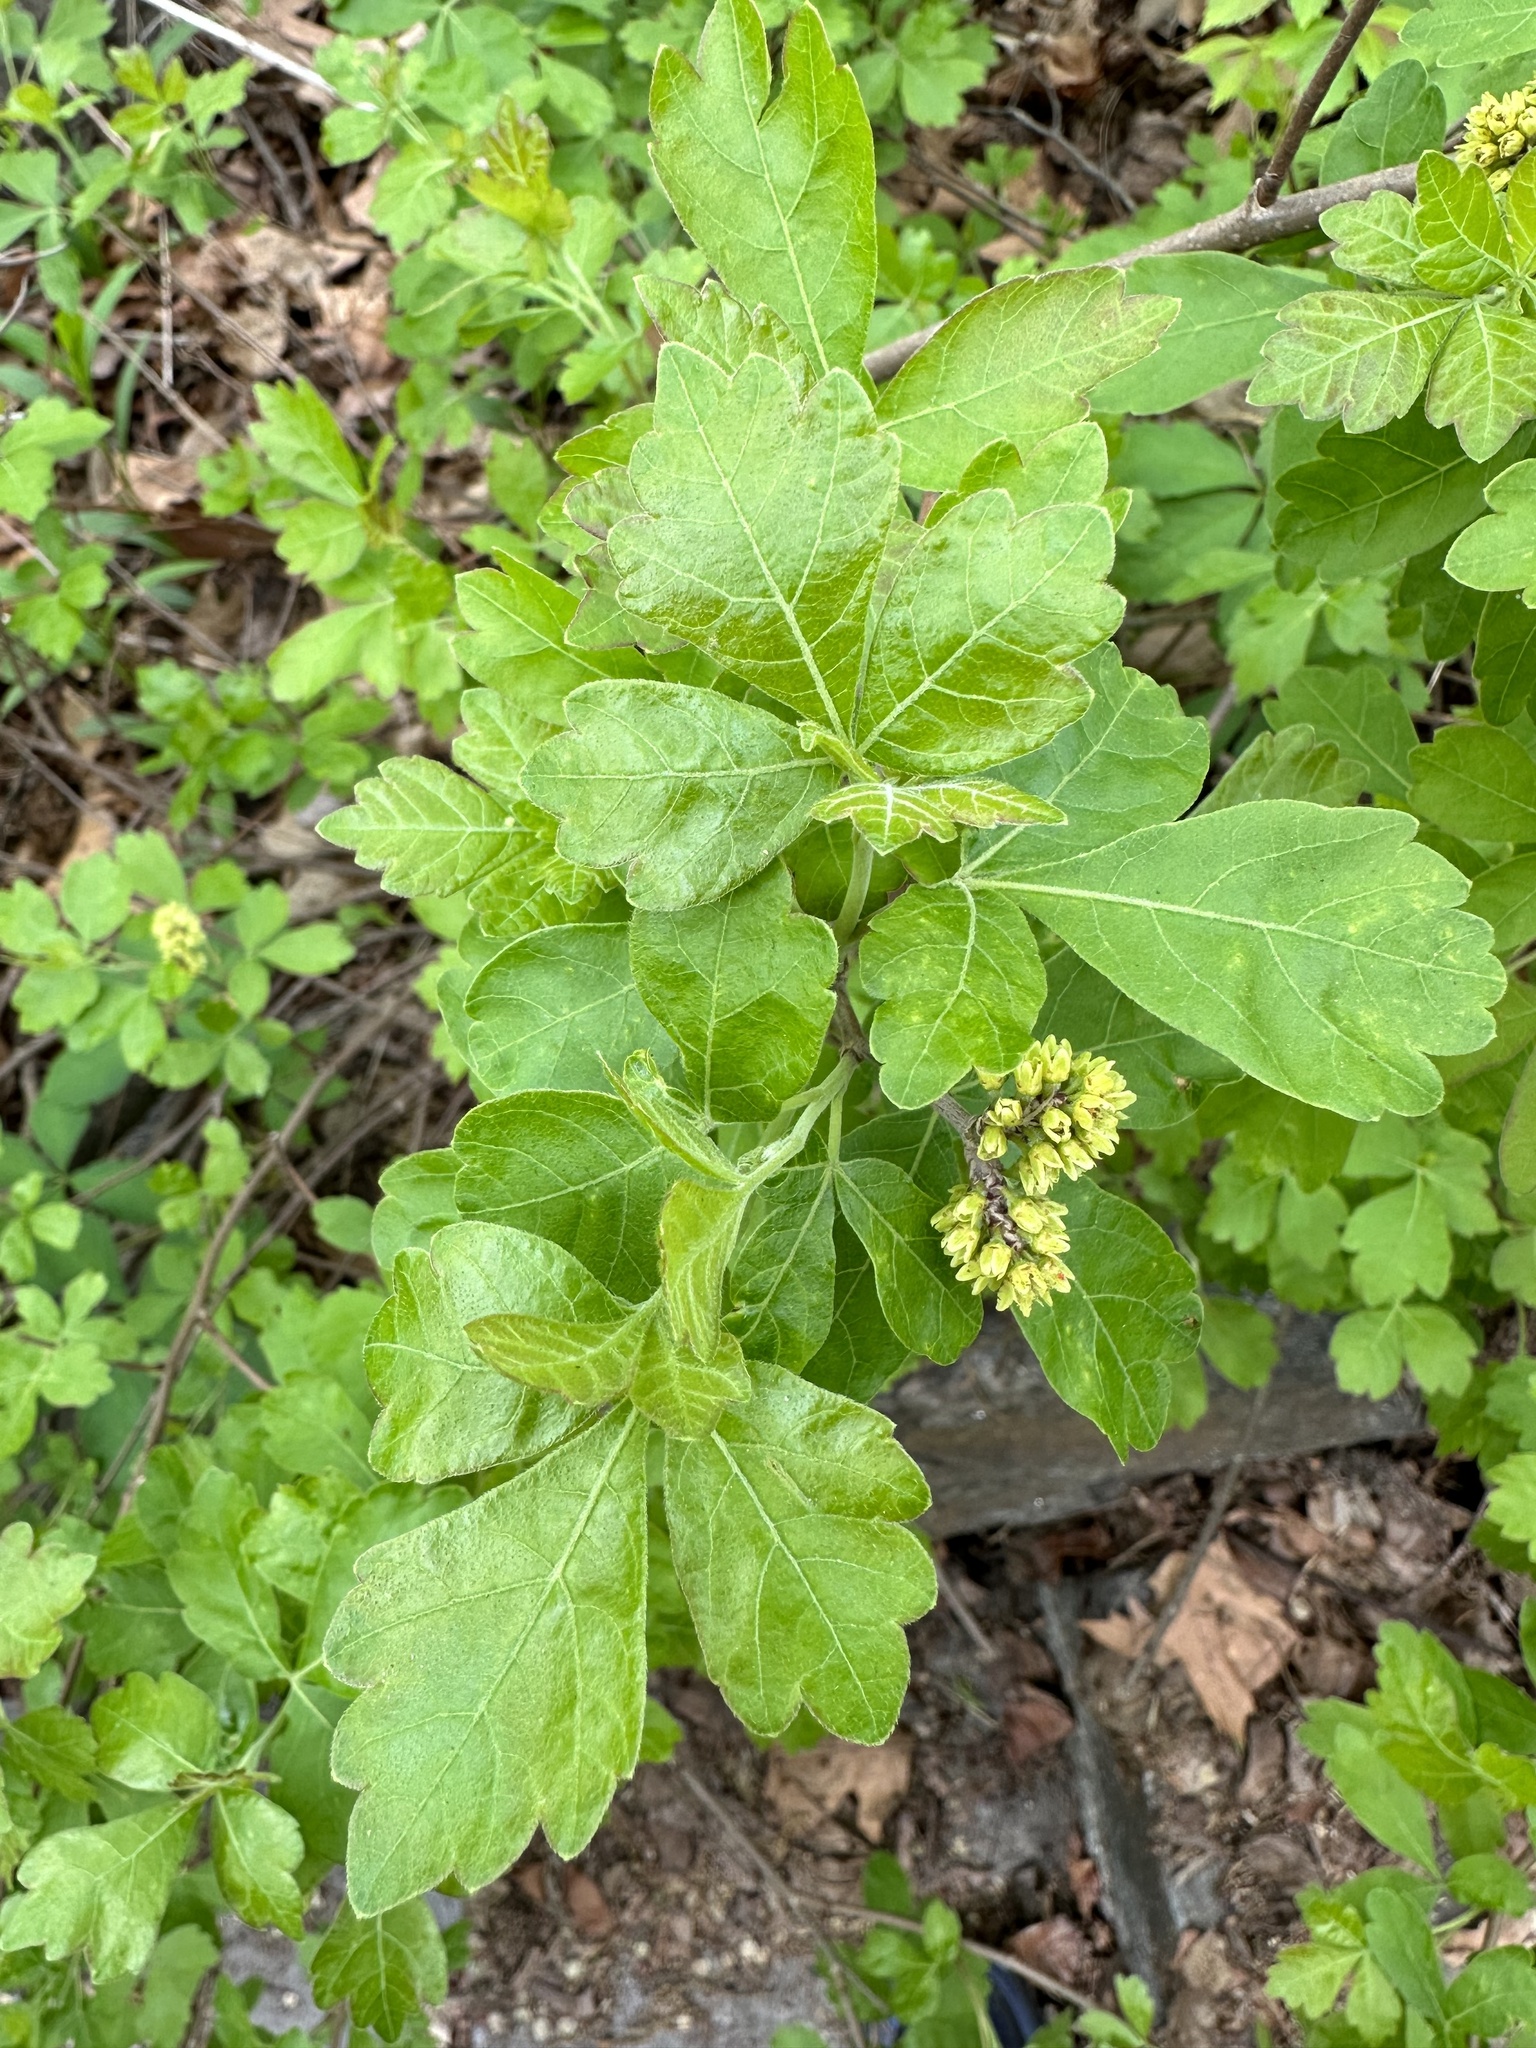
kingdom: Plantae
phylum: Tracheophyta
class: Magnoliopsida
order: Sapindales
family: Anacardiaceae
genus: Rhus
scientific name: Rhus aromatica
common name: Aromatic sumac
